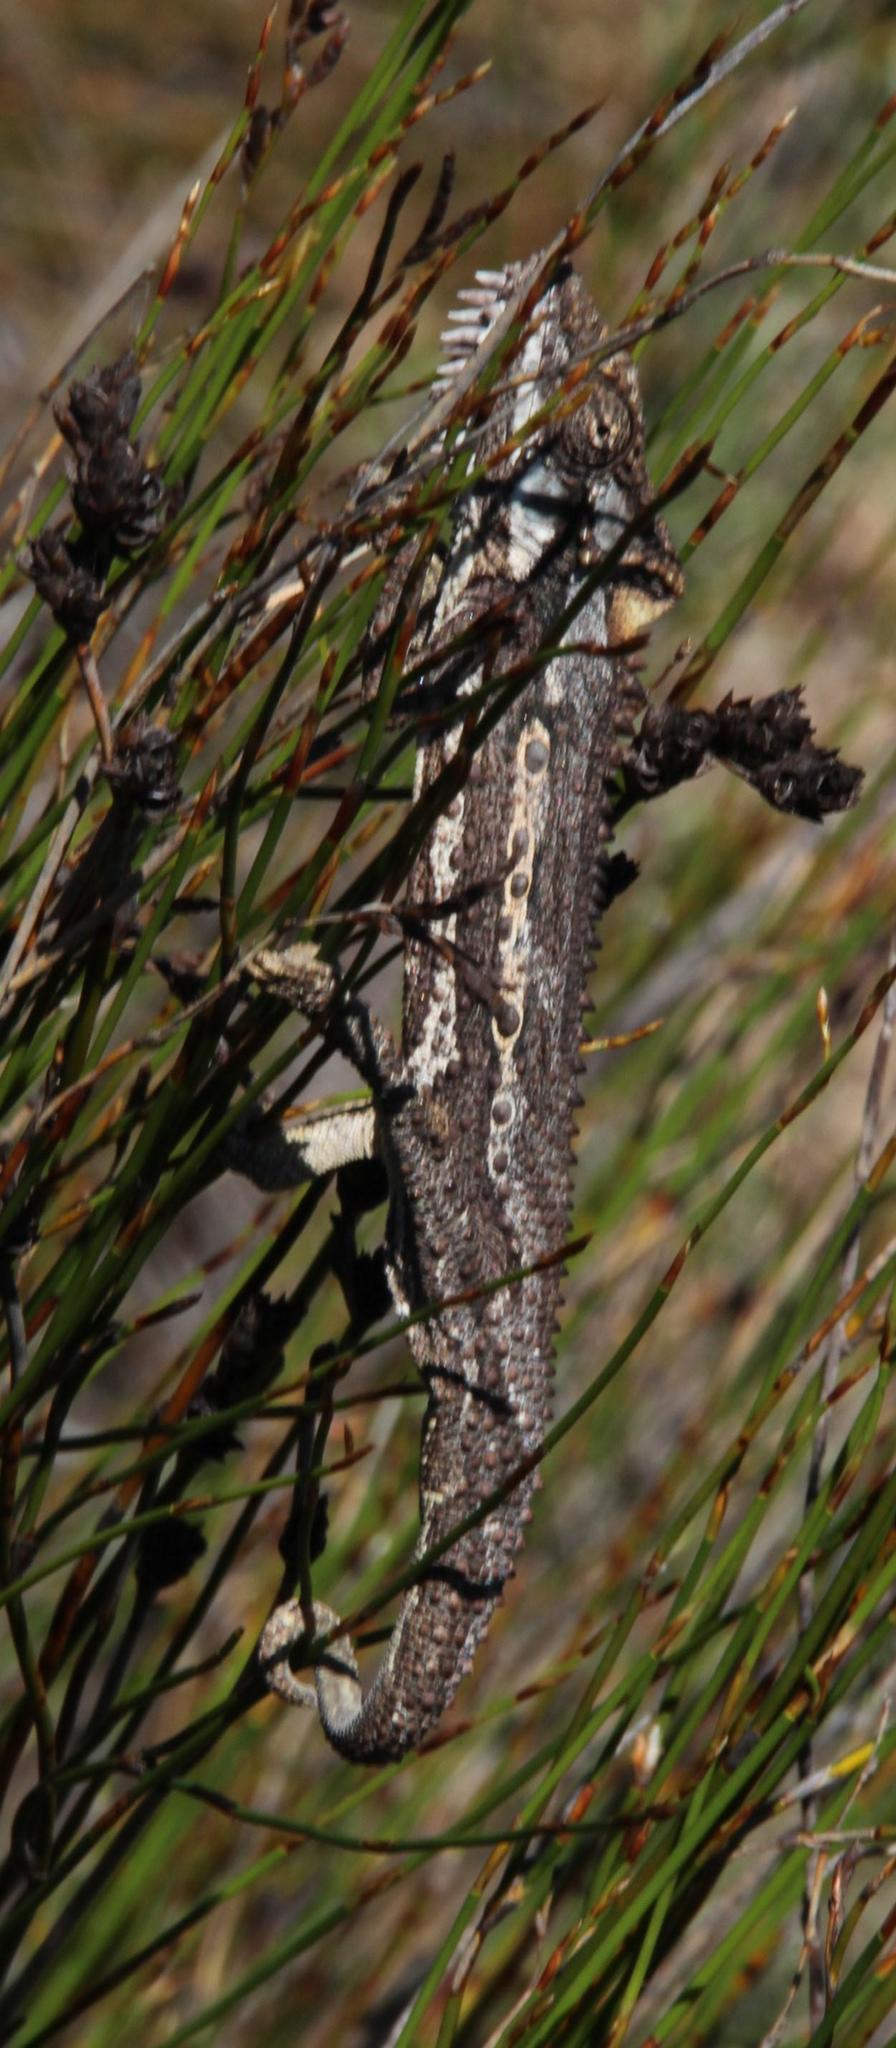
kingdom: Animalia
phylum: Chordata
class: Squamata
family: Chamaeleonidae
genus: Bradypodion
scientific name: Bradypodion gutturale
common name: Little karoo dwarf chameleon
